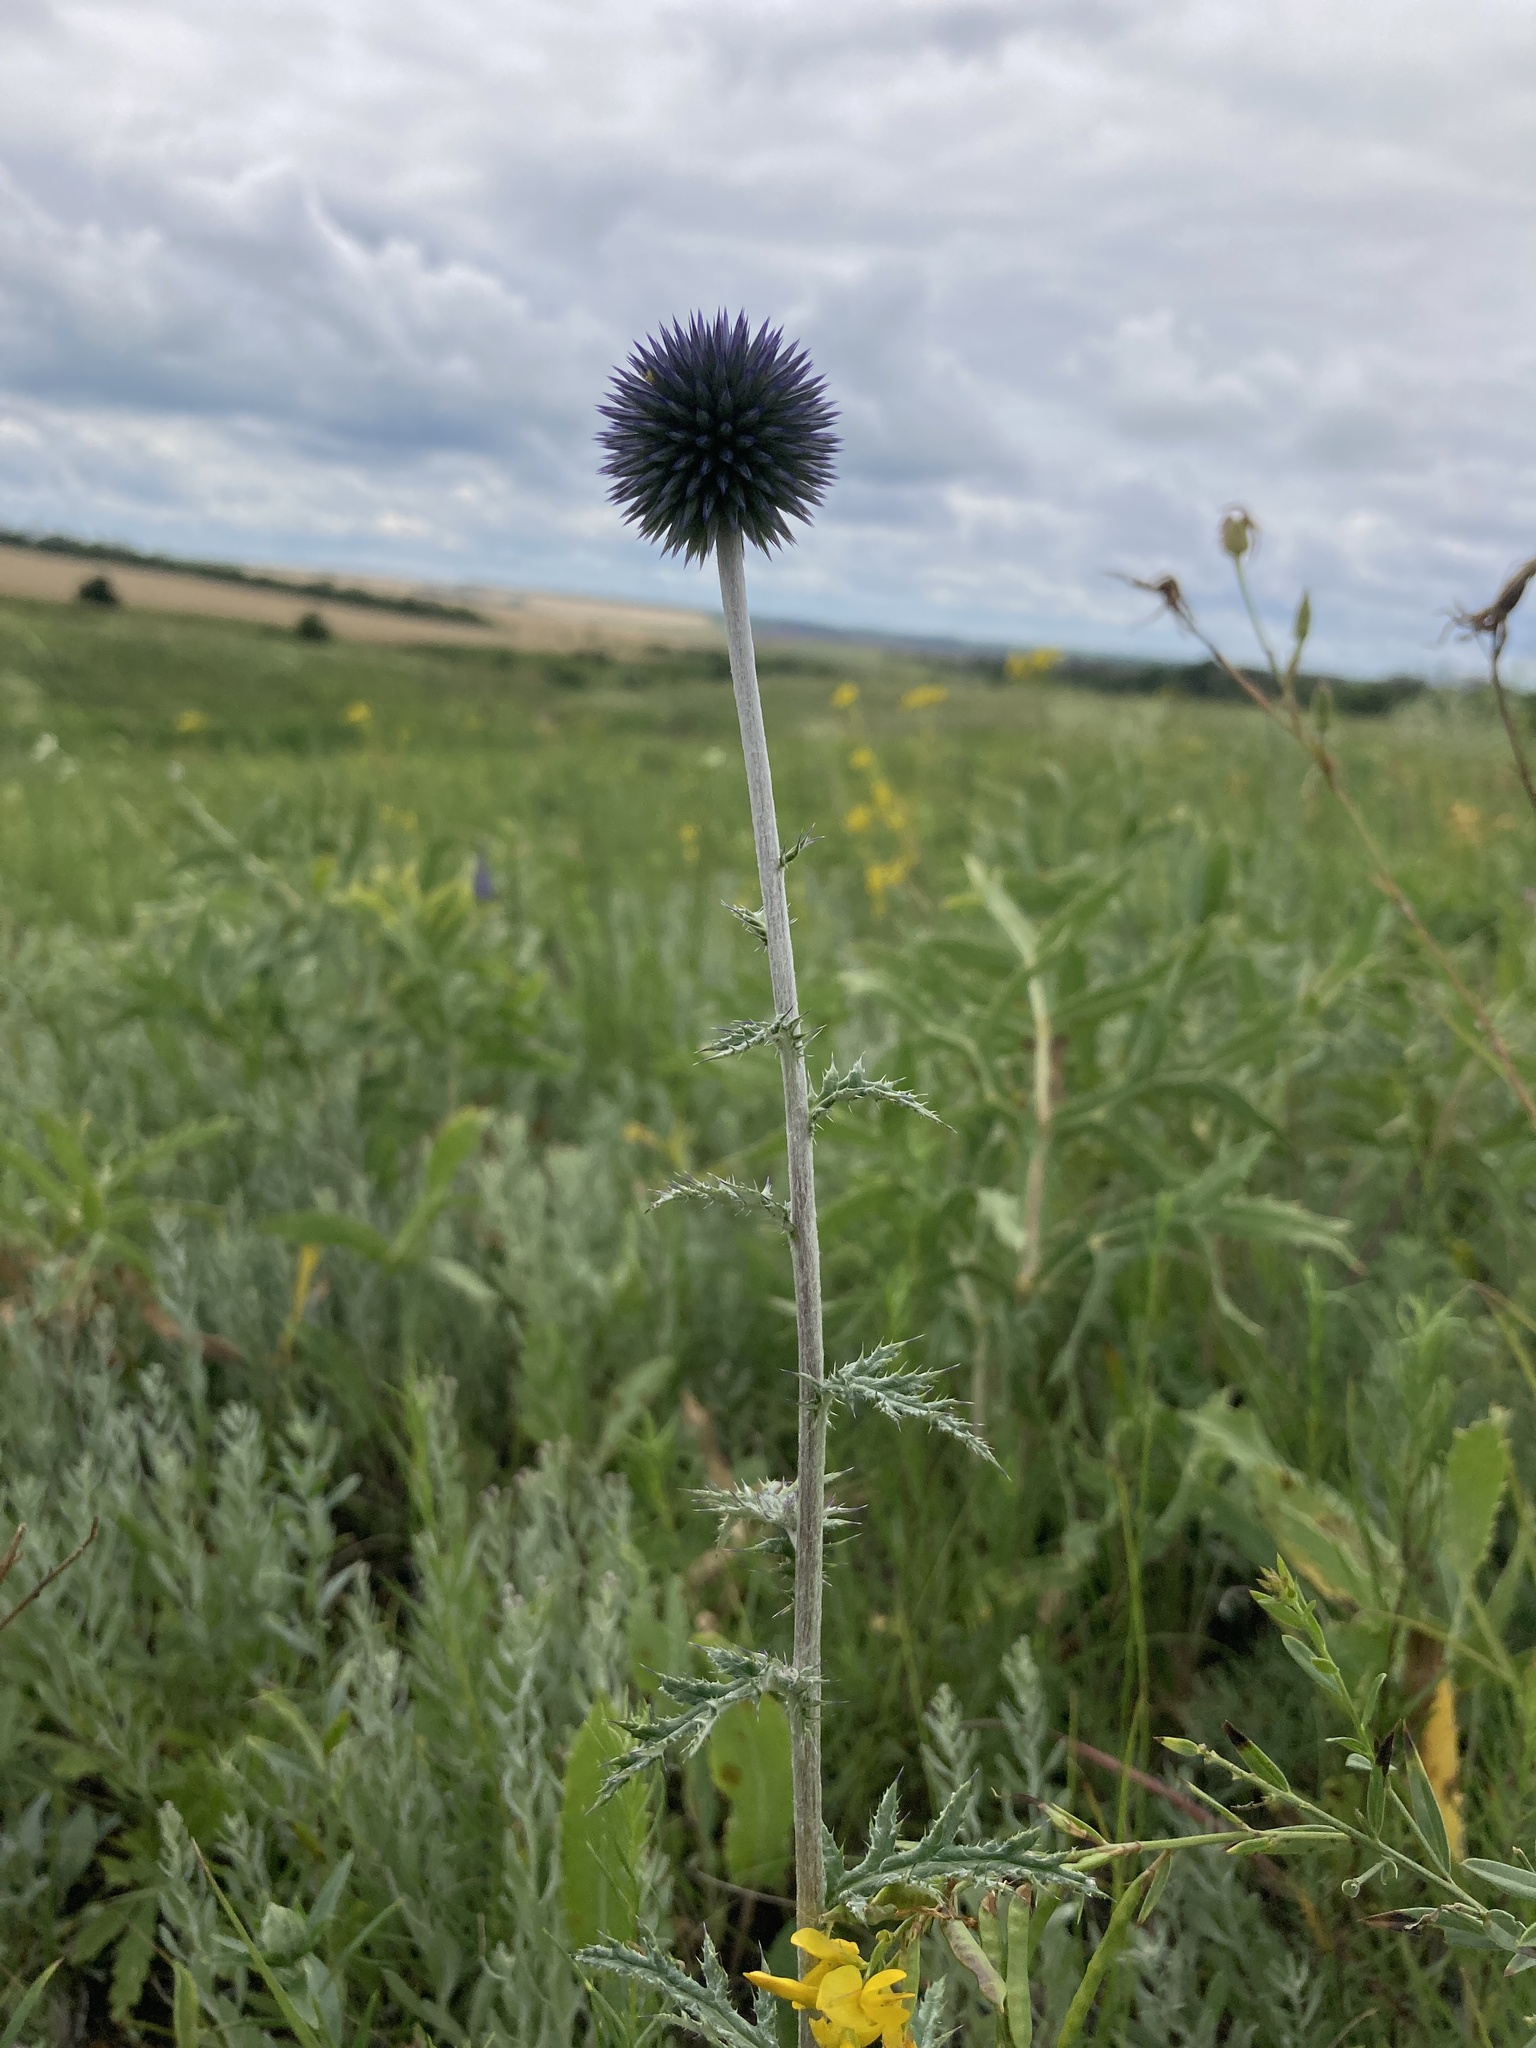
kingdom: Plantae
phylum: Tracheophyta
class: Magnoliopsida
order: Asterales
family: Asteraceae
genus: Echinops
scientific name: Echinops ritro
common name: Globe thistle
